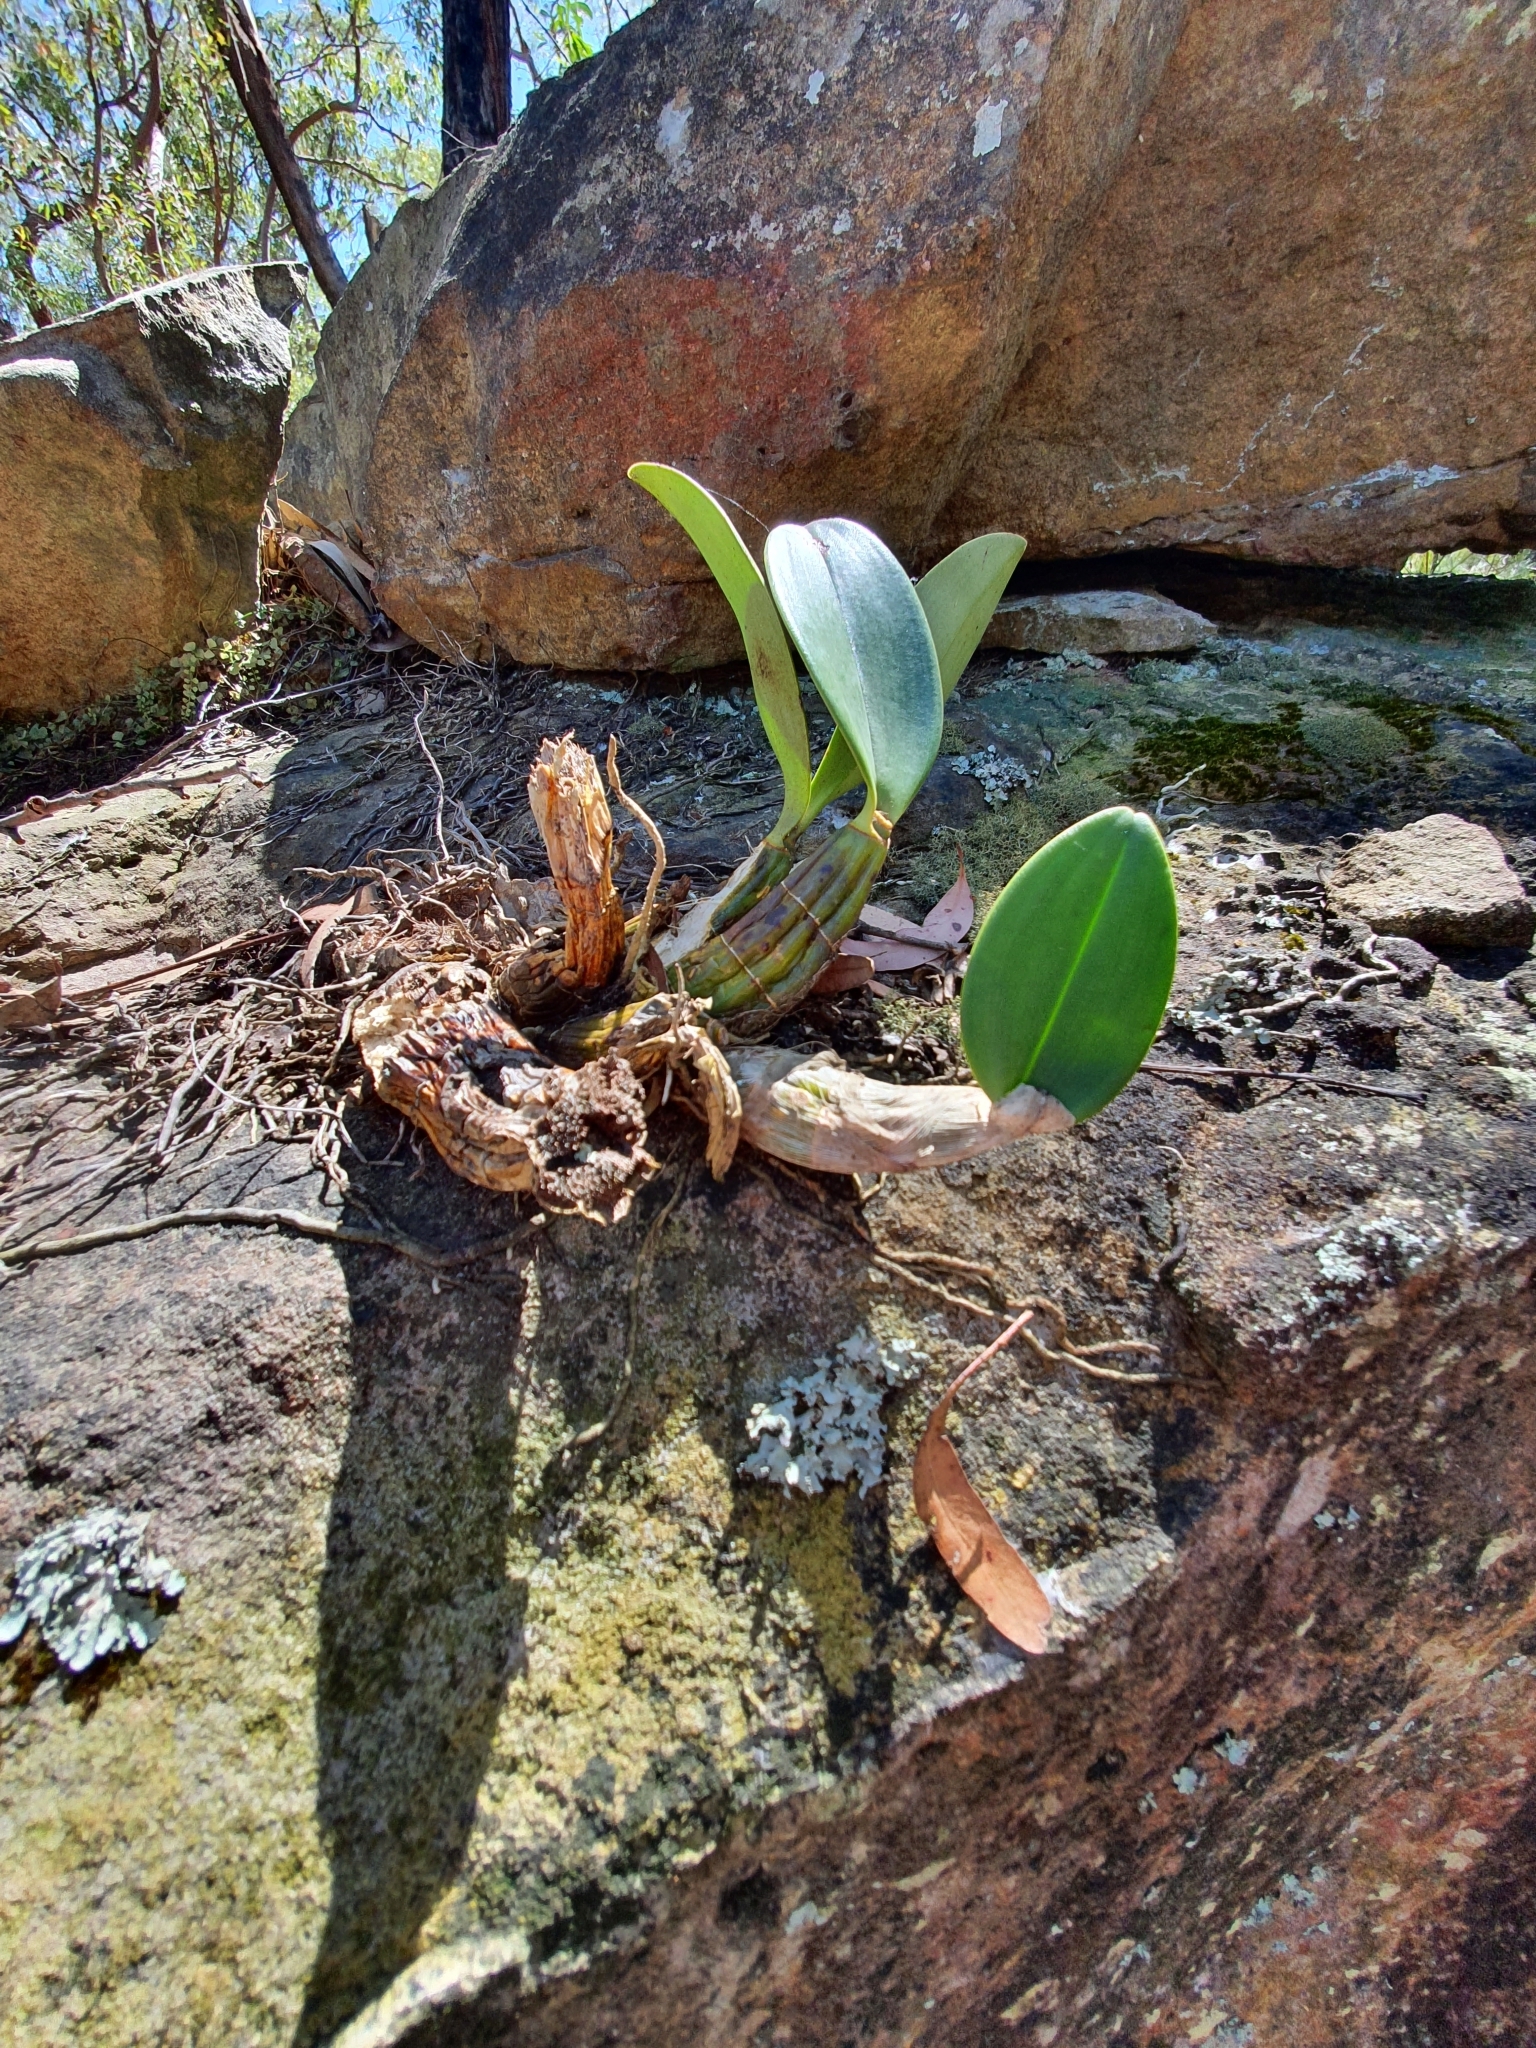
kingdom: Plantae
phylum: Tracheophyta
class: Liliopsida
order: Asparagales
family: Orchidaceae
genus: Dendrobium
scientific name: Dendrobium speciosum
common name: Rock-lily
